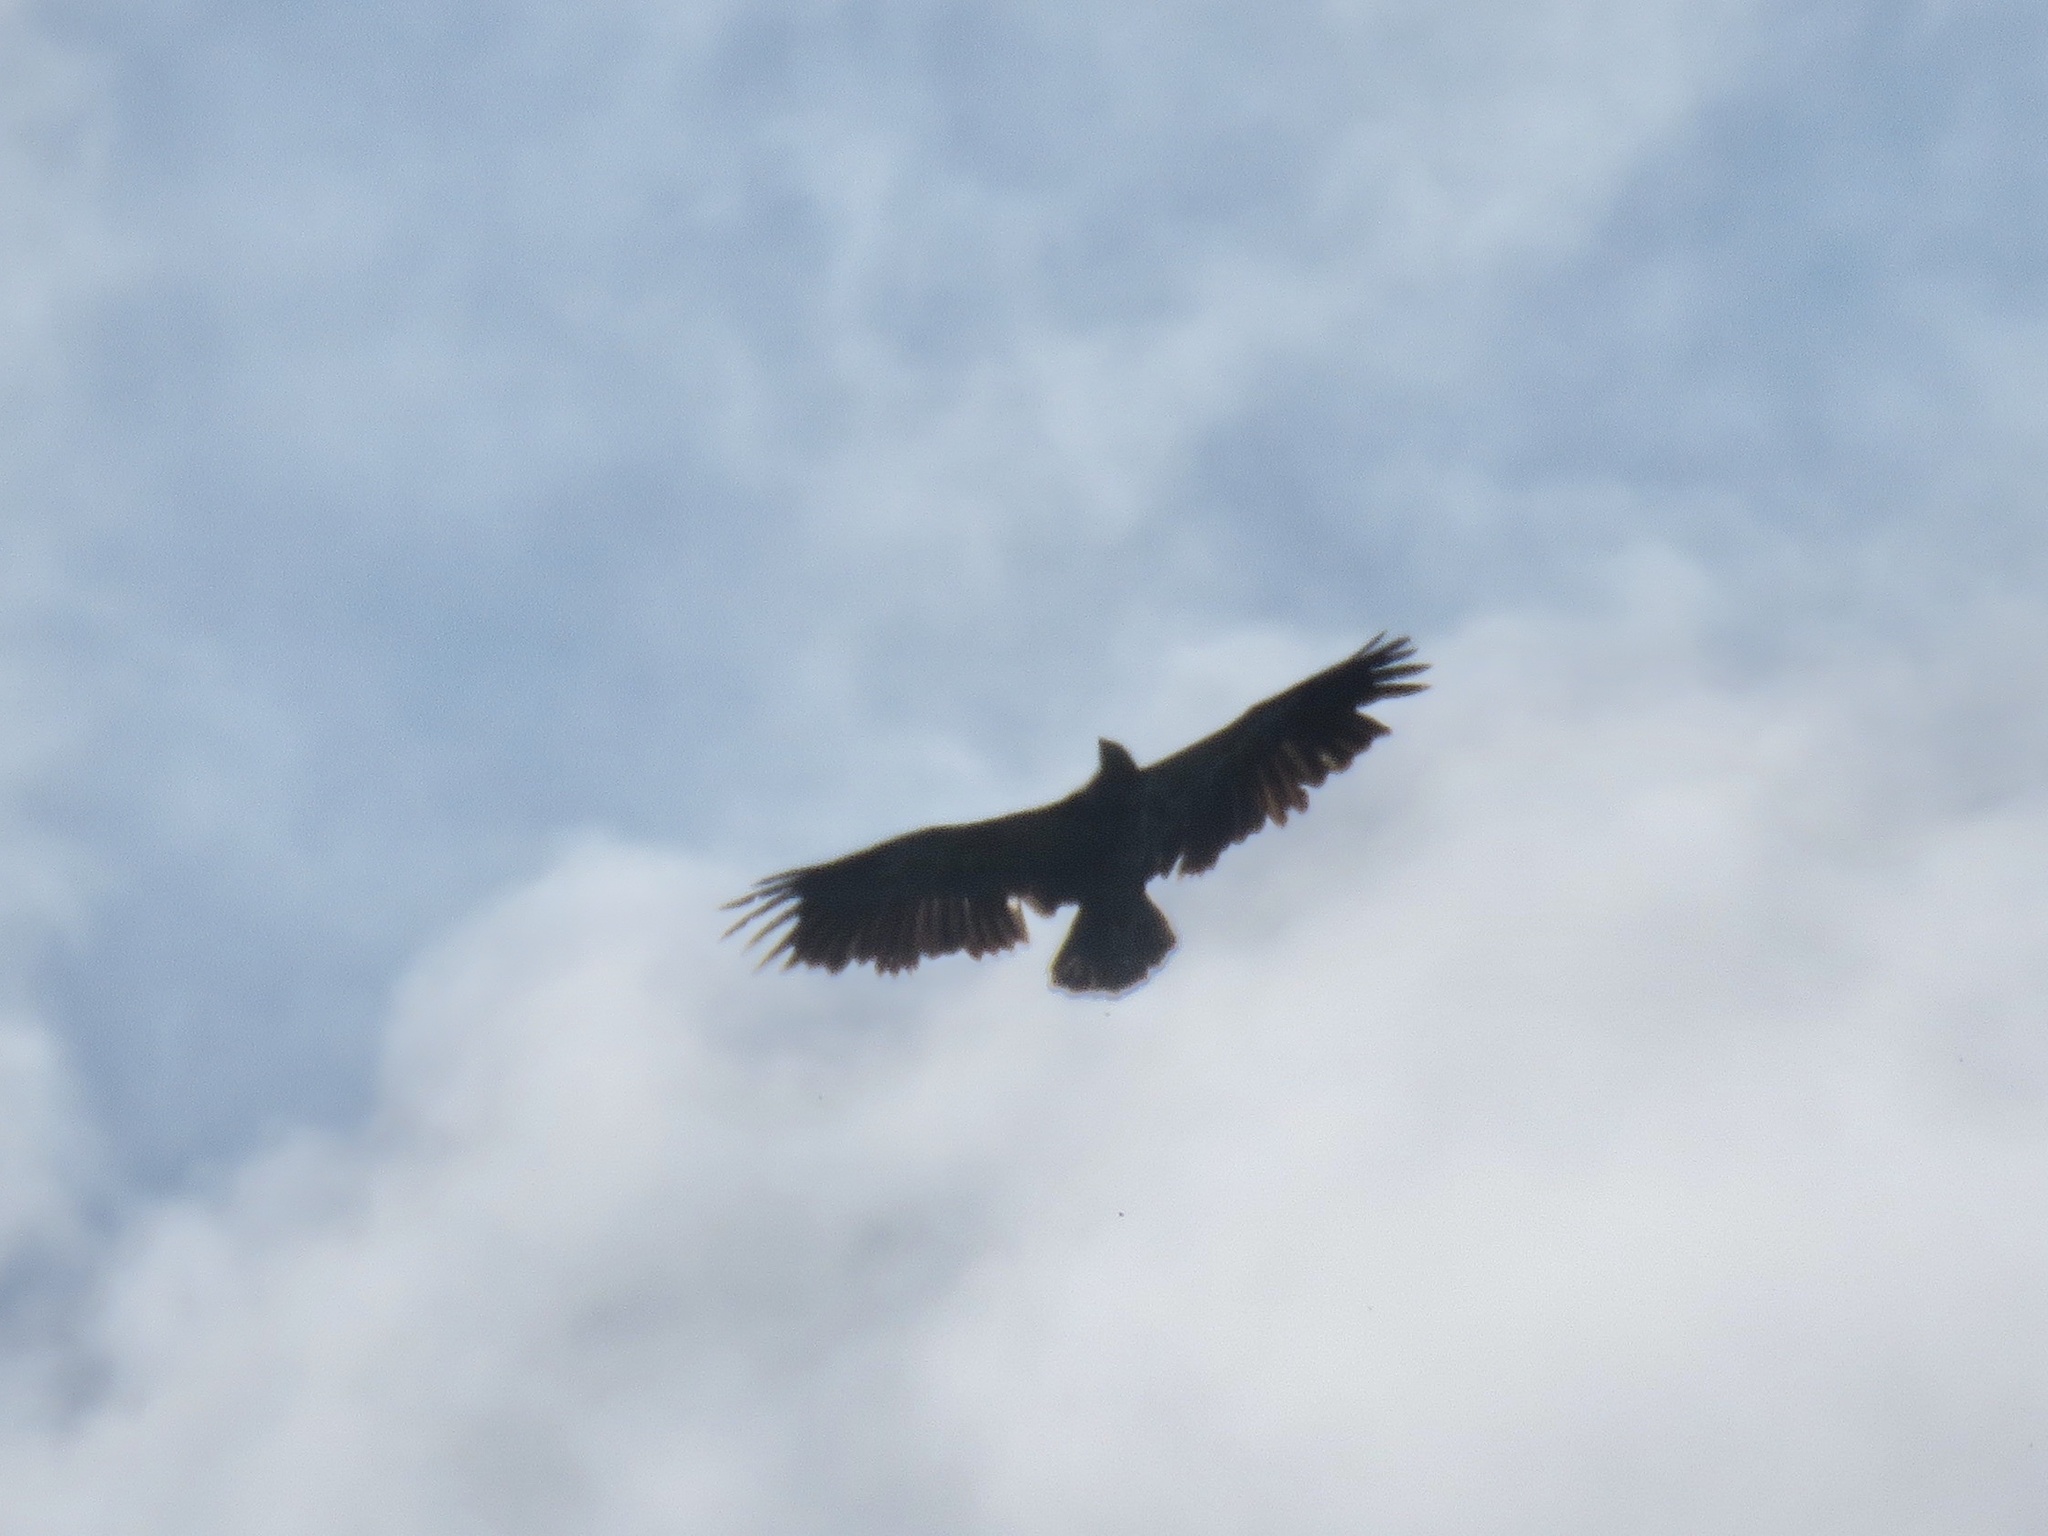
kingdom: Animalia
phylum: Chordata
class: Aves
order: Accipitriformes
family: Accipitridae
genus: Haliaeetus
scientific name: Haliaeetus leucocephalus
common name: Bald eagle
